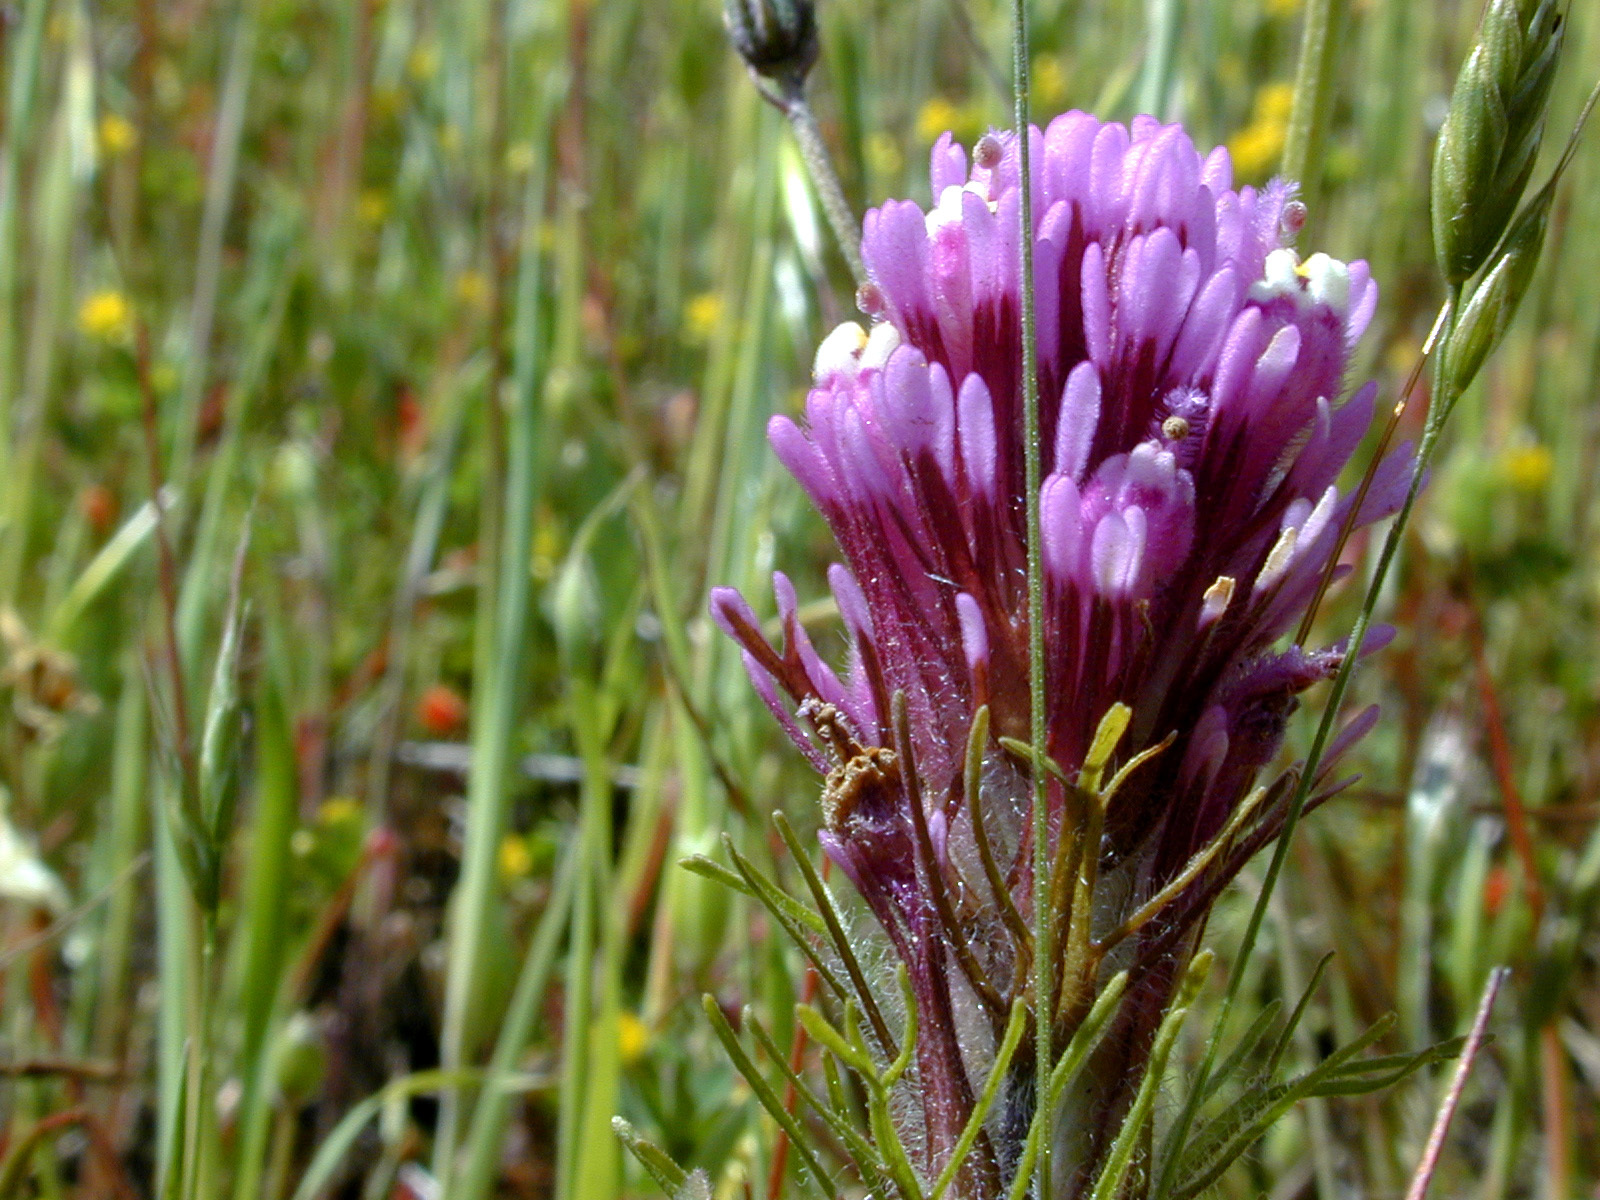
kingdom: Plantae
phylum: Tracheophyta
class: Magnoliopsida
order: Lamiales
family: Orobanchaceae
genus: Castilleja
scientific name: Castilleja exserta
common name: Purple owl-clover
